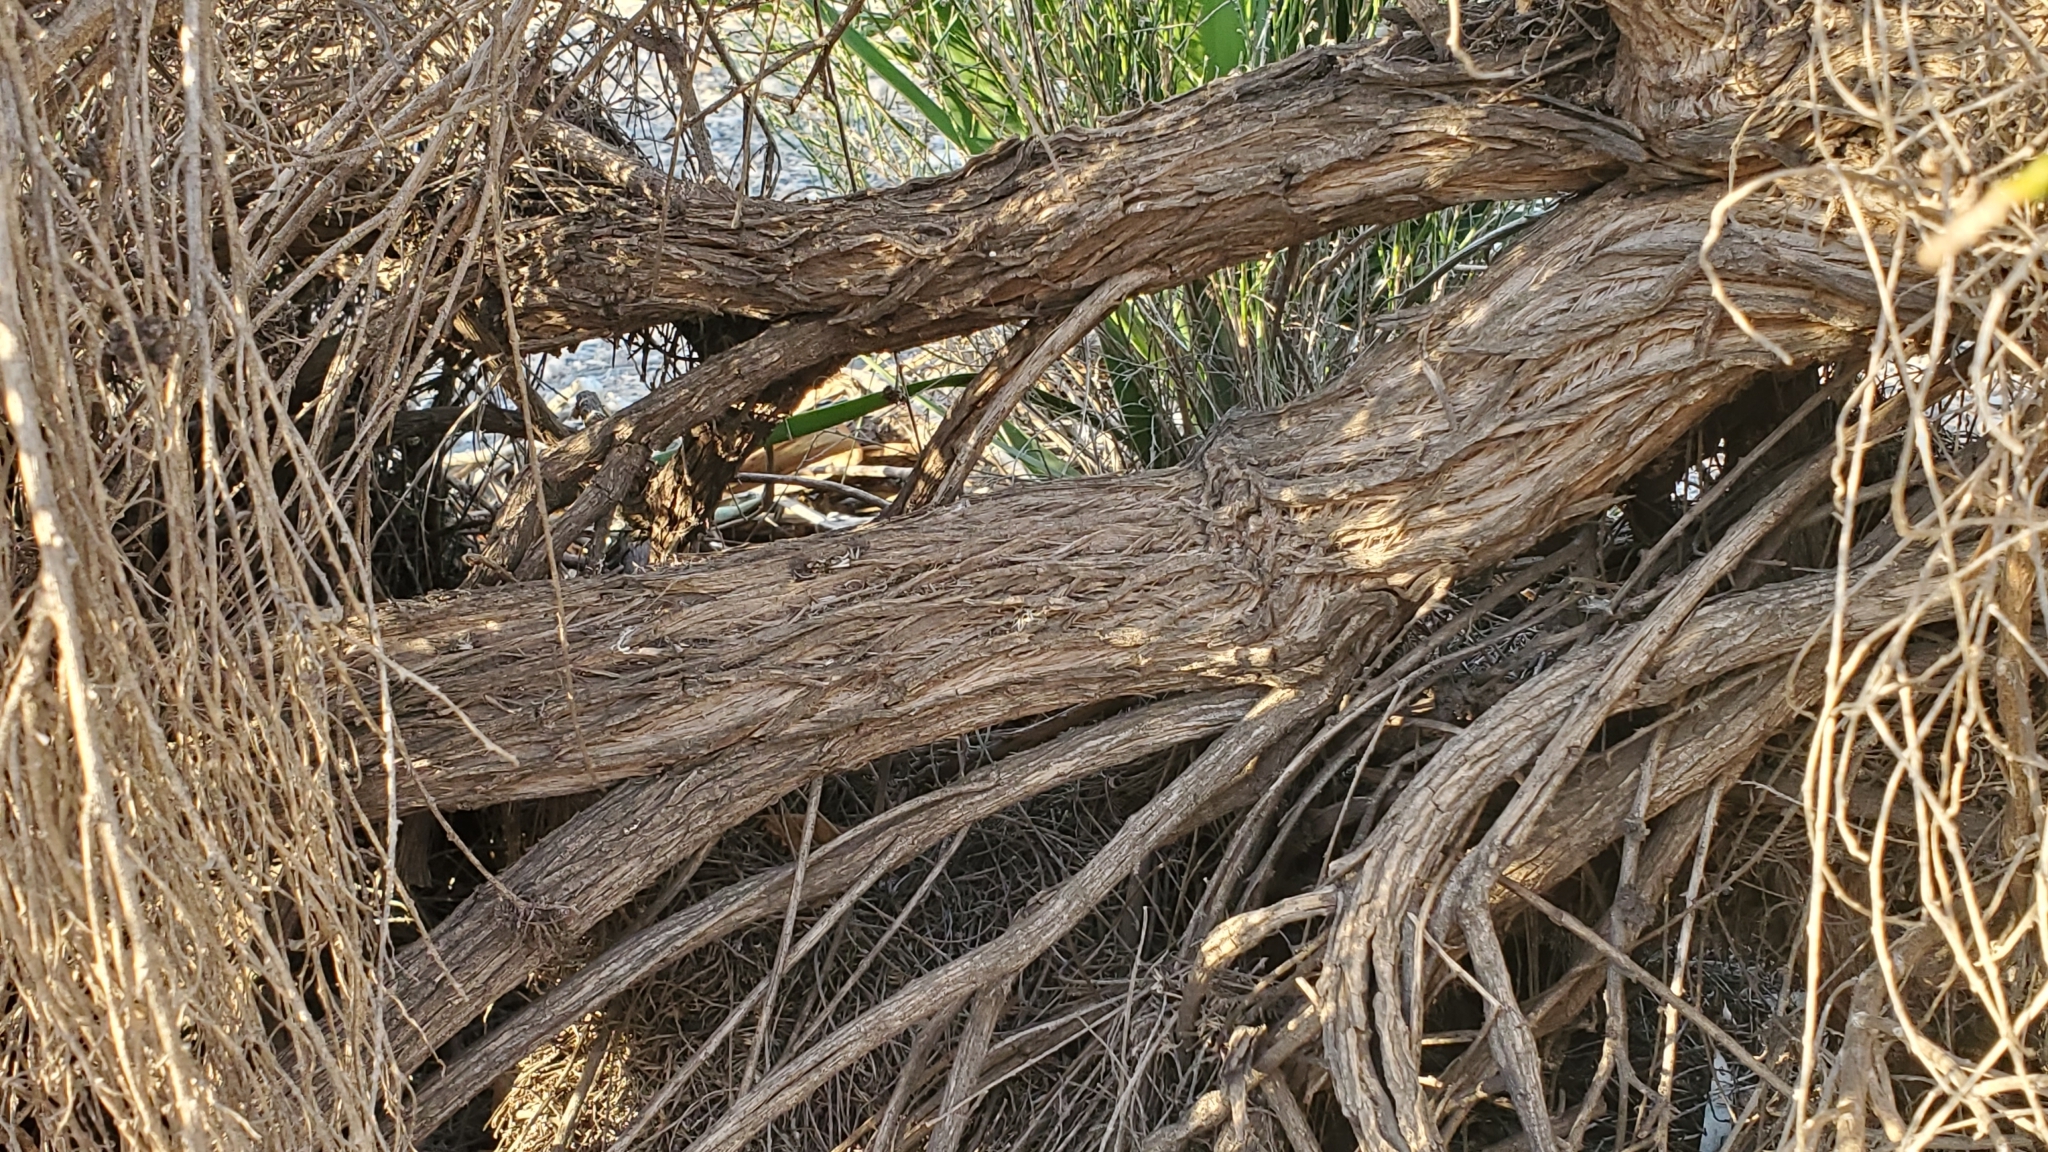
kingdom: Plantae
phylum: Tracheophyta
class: Magnoliopsida
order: Asterales
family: Asteraceae
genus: Lepidospartum
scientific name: Lepidospartum squamatum
